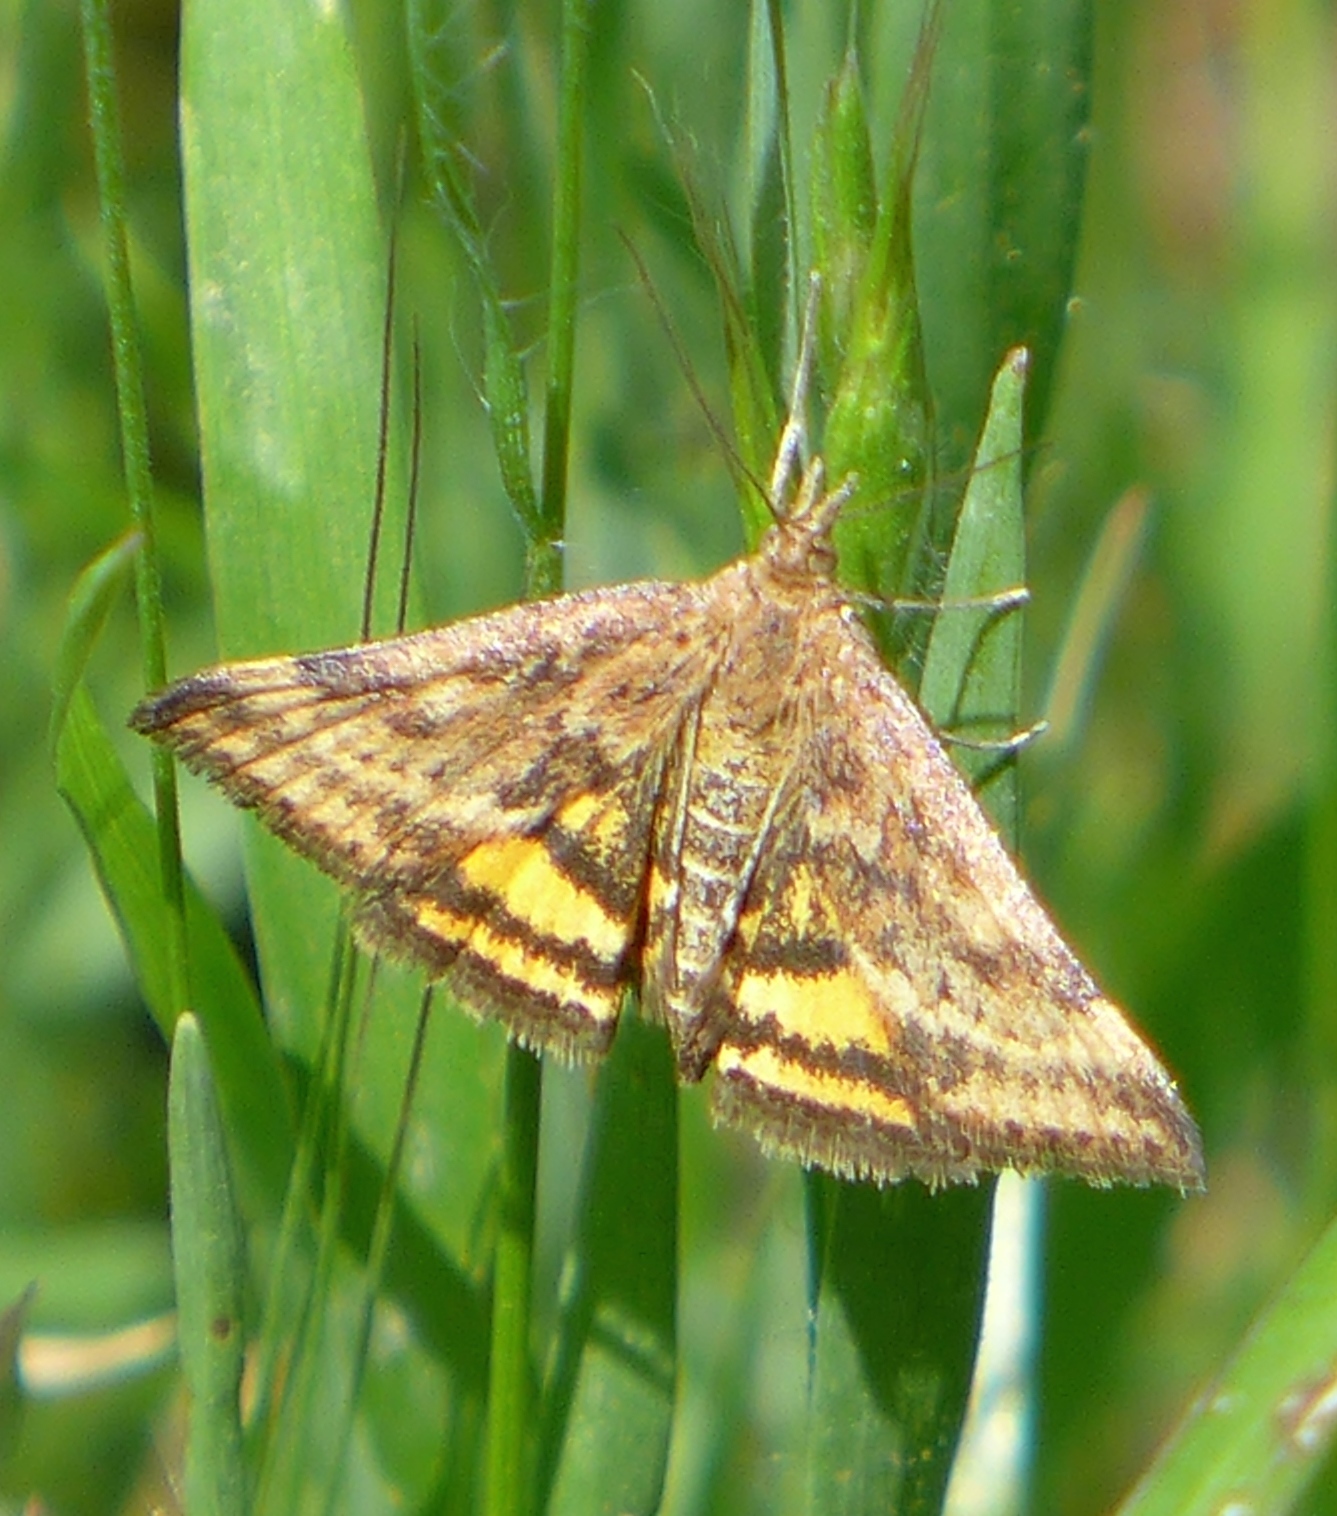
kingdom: Animalia
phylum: Arthropoda
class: Insecta
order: Lepidoptera
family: Crambidae
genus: Pyrausta
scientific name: Pyrausta subsequalis
